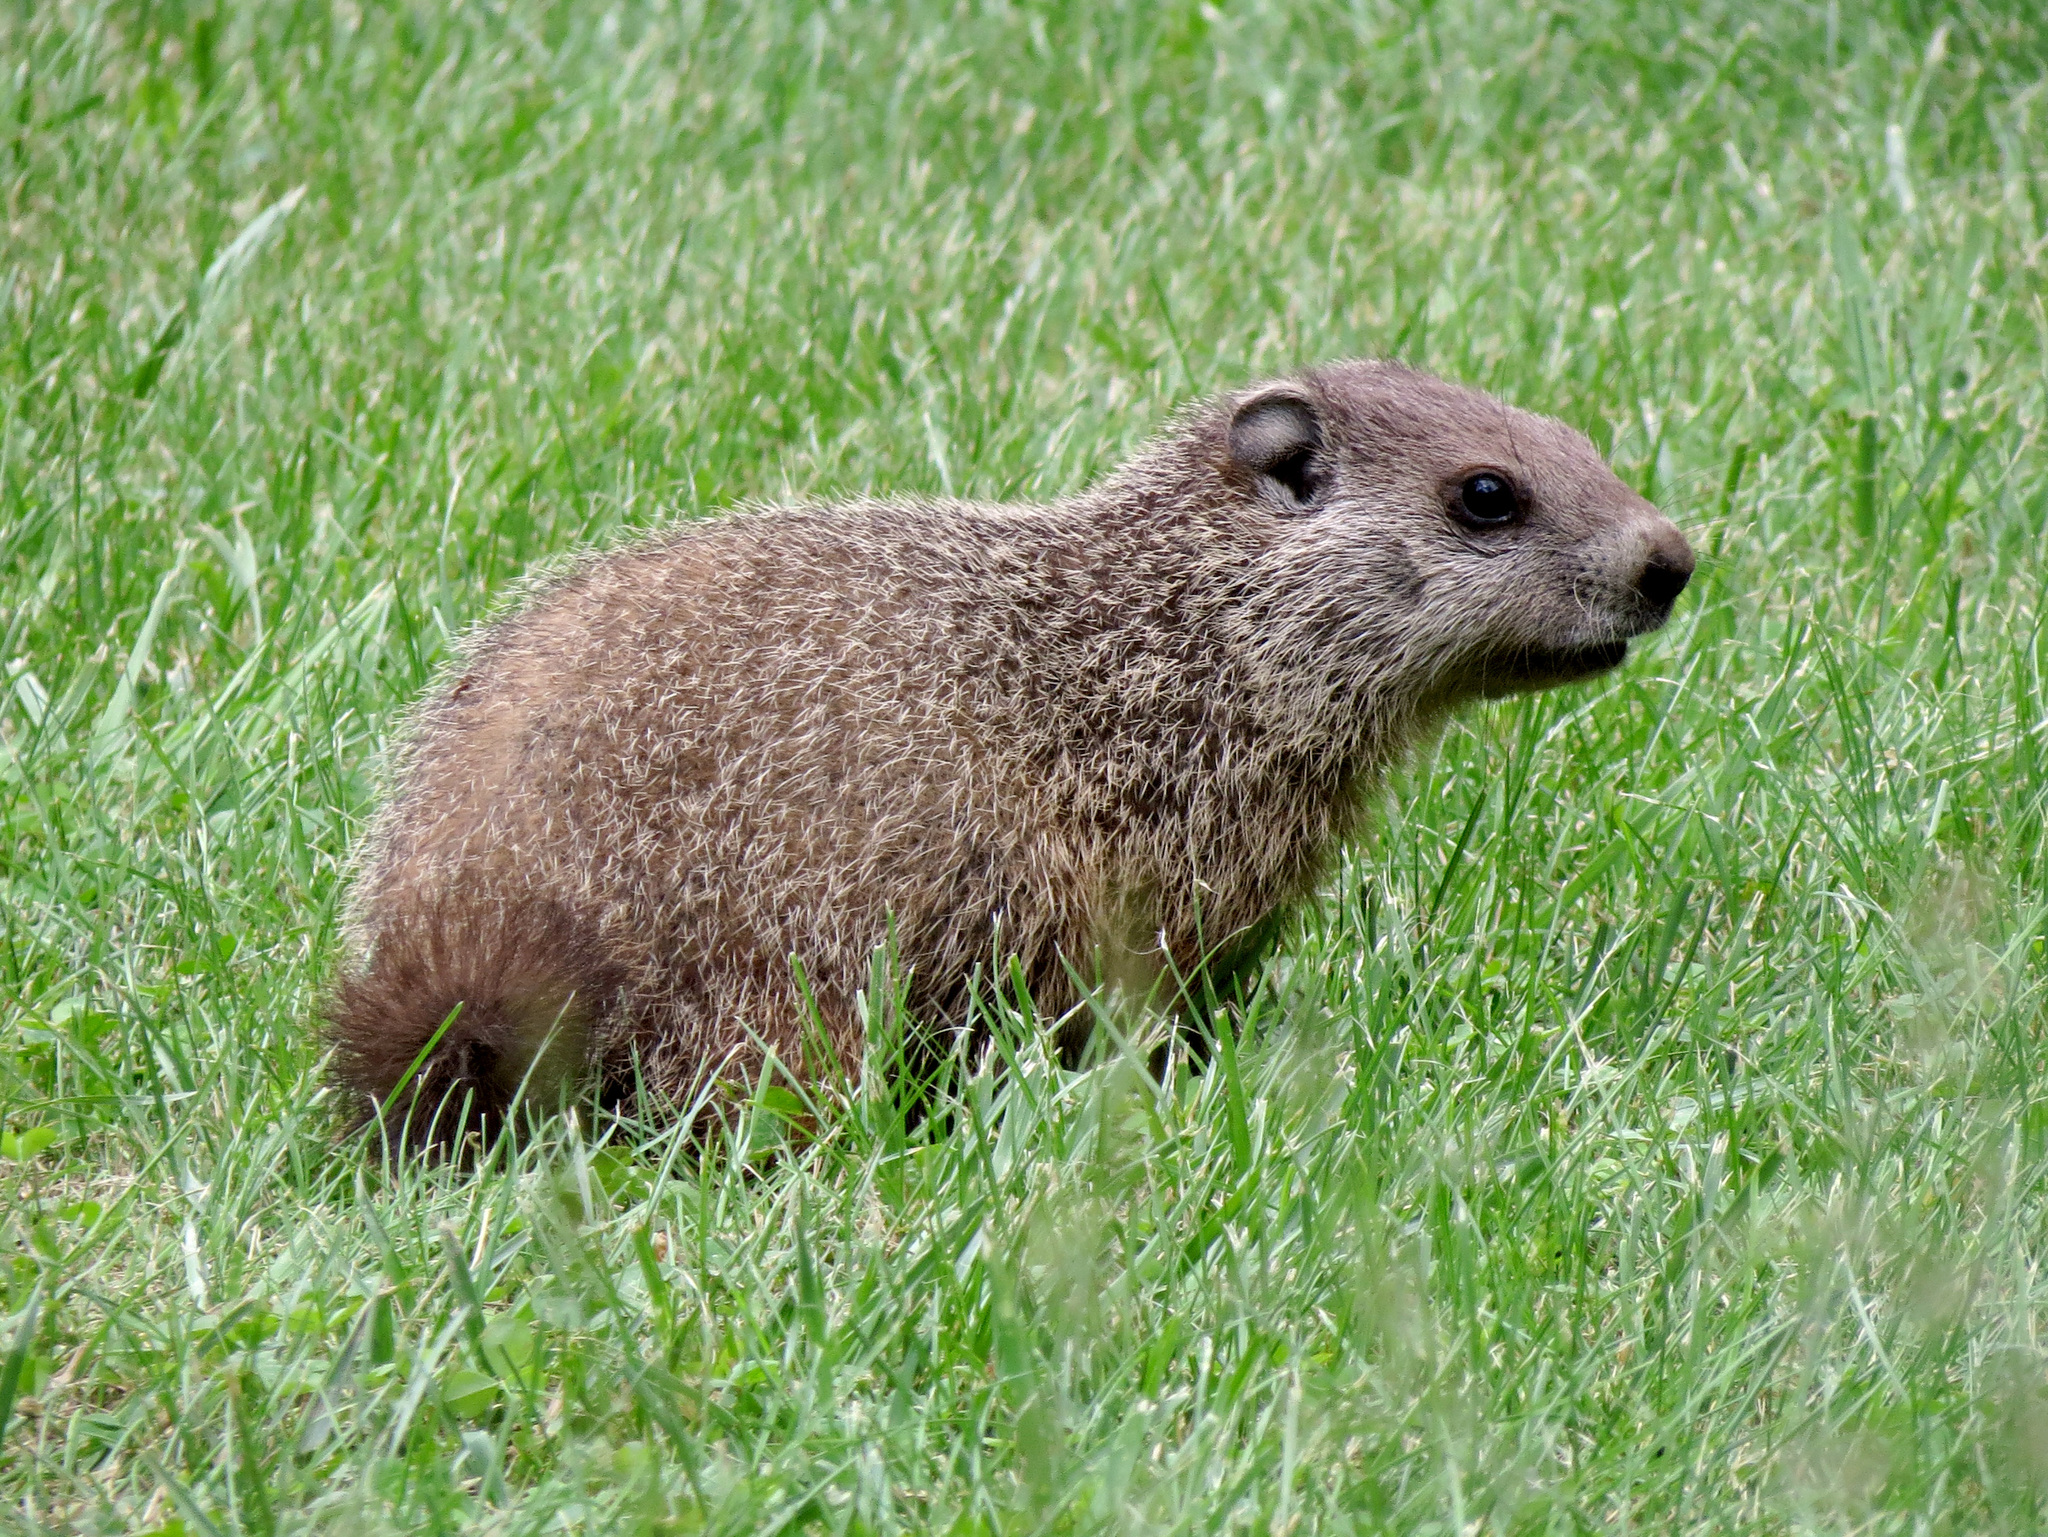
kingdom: Animalia
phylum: Chordata
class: Mammalia
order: Rodentia
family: Sciuridae
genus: Marmota
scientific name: Marmota monax
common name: Groundhog
